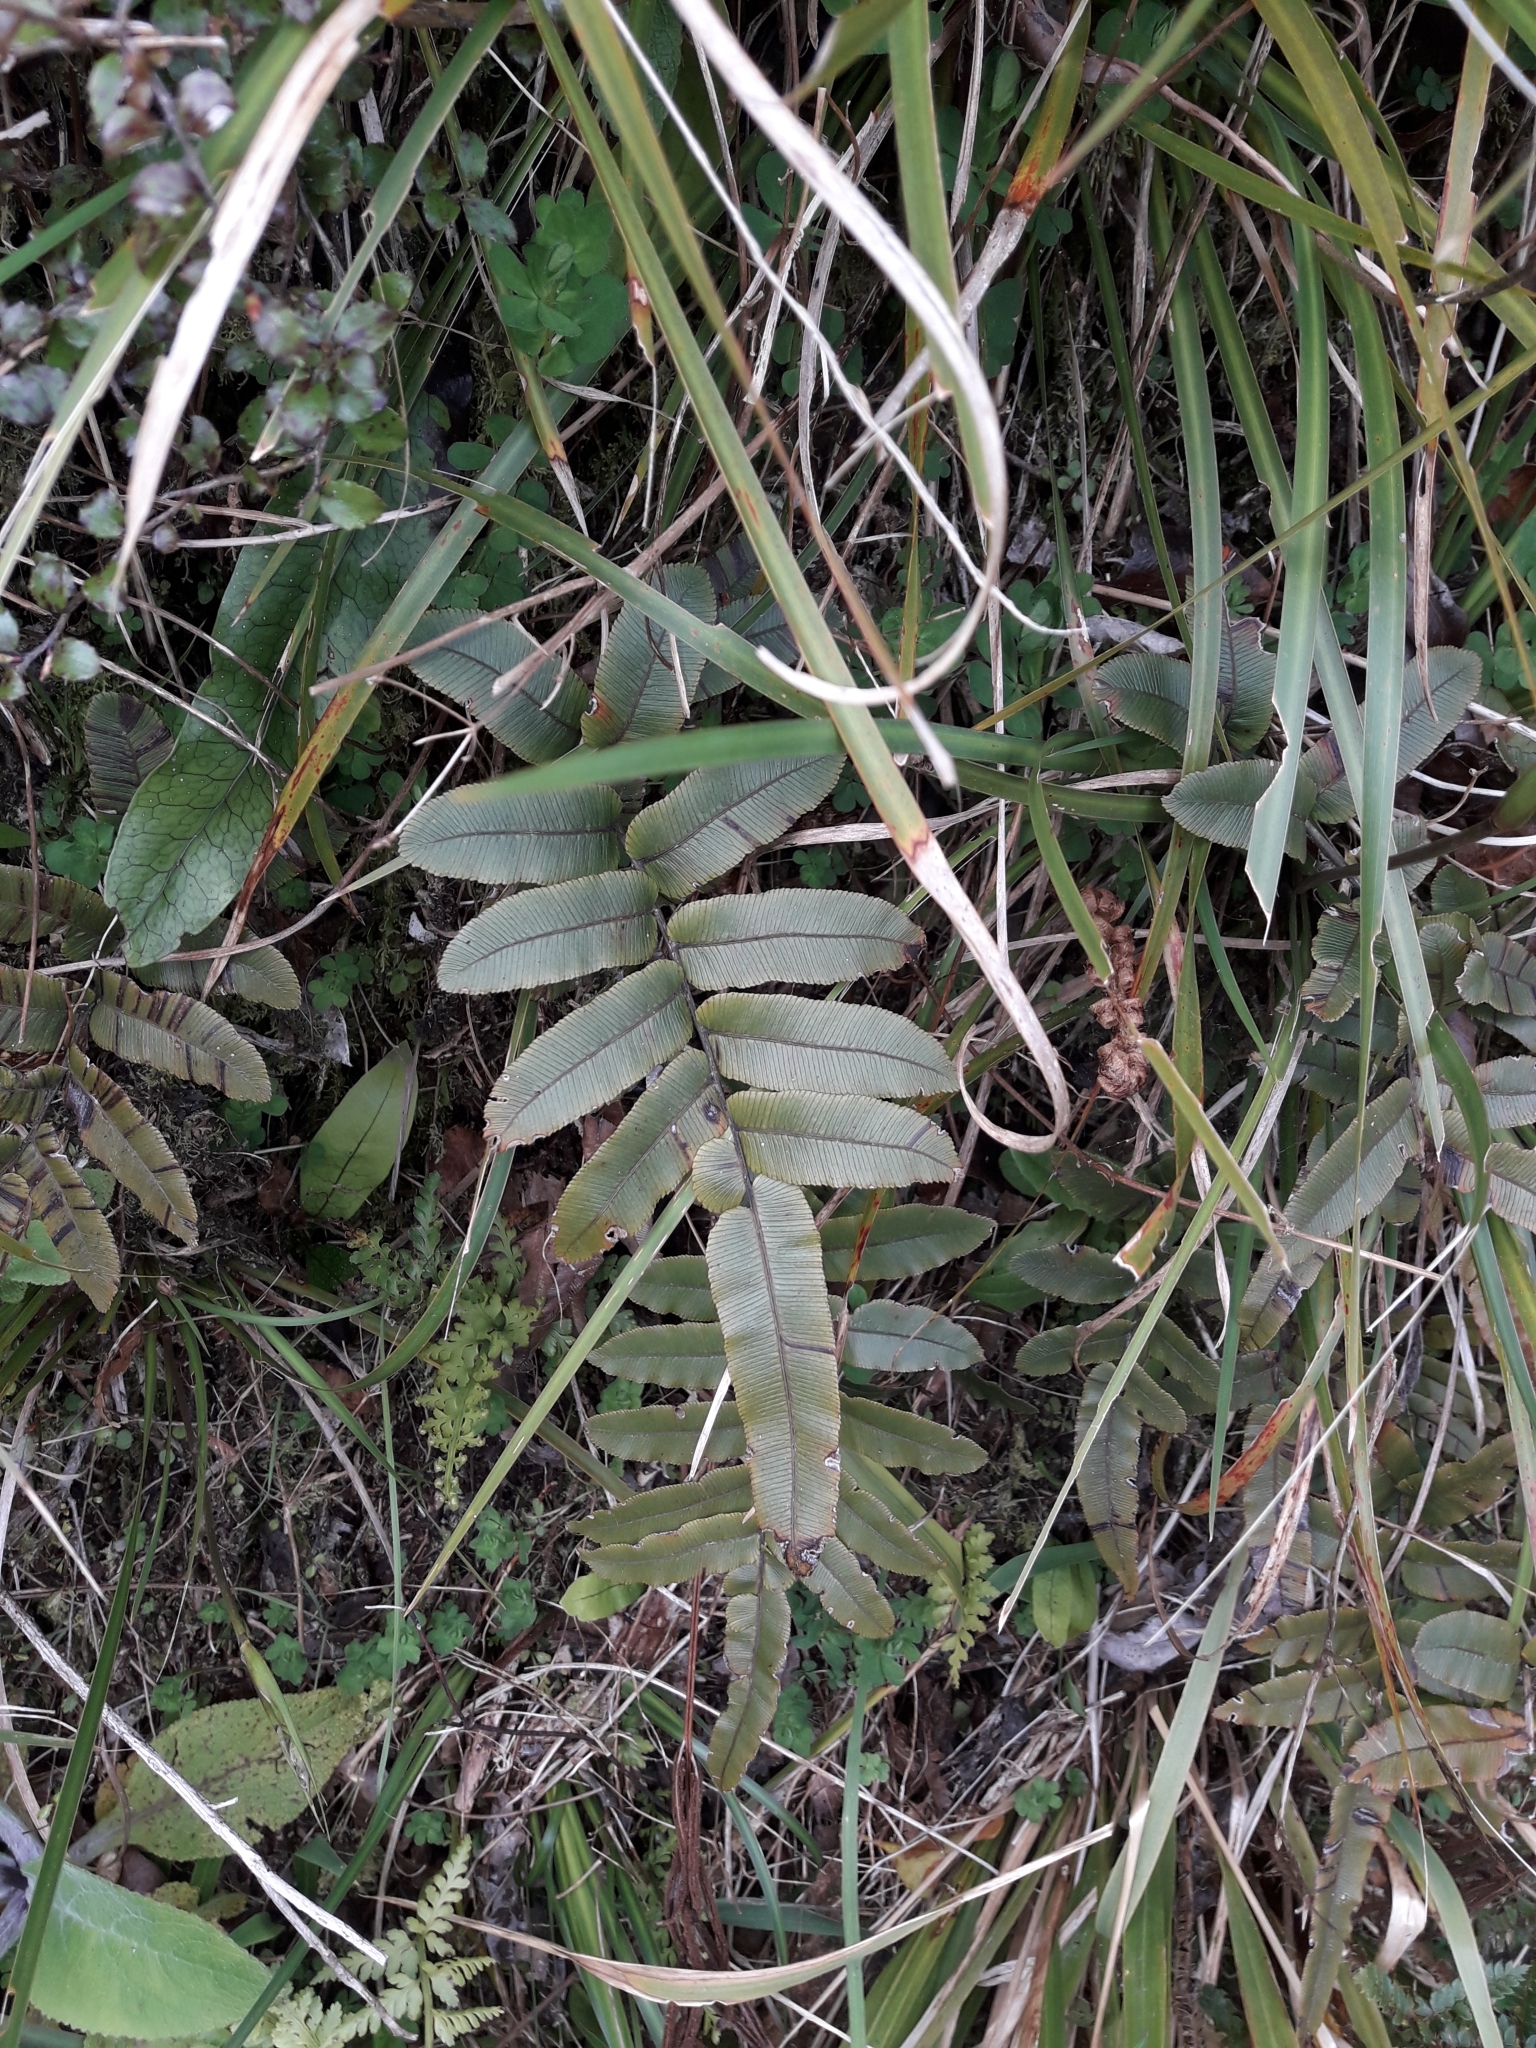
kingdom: Plantae
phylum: Tracheophyta
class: Polypodiopsida
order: Polypodiales
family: Blechnaceae
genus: Parablechnum
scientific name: Parablechnum procerum
